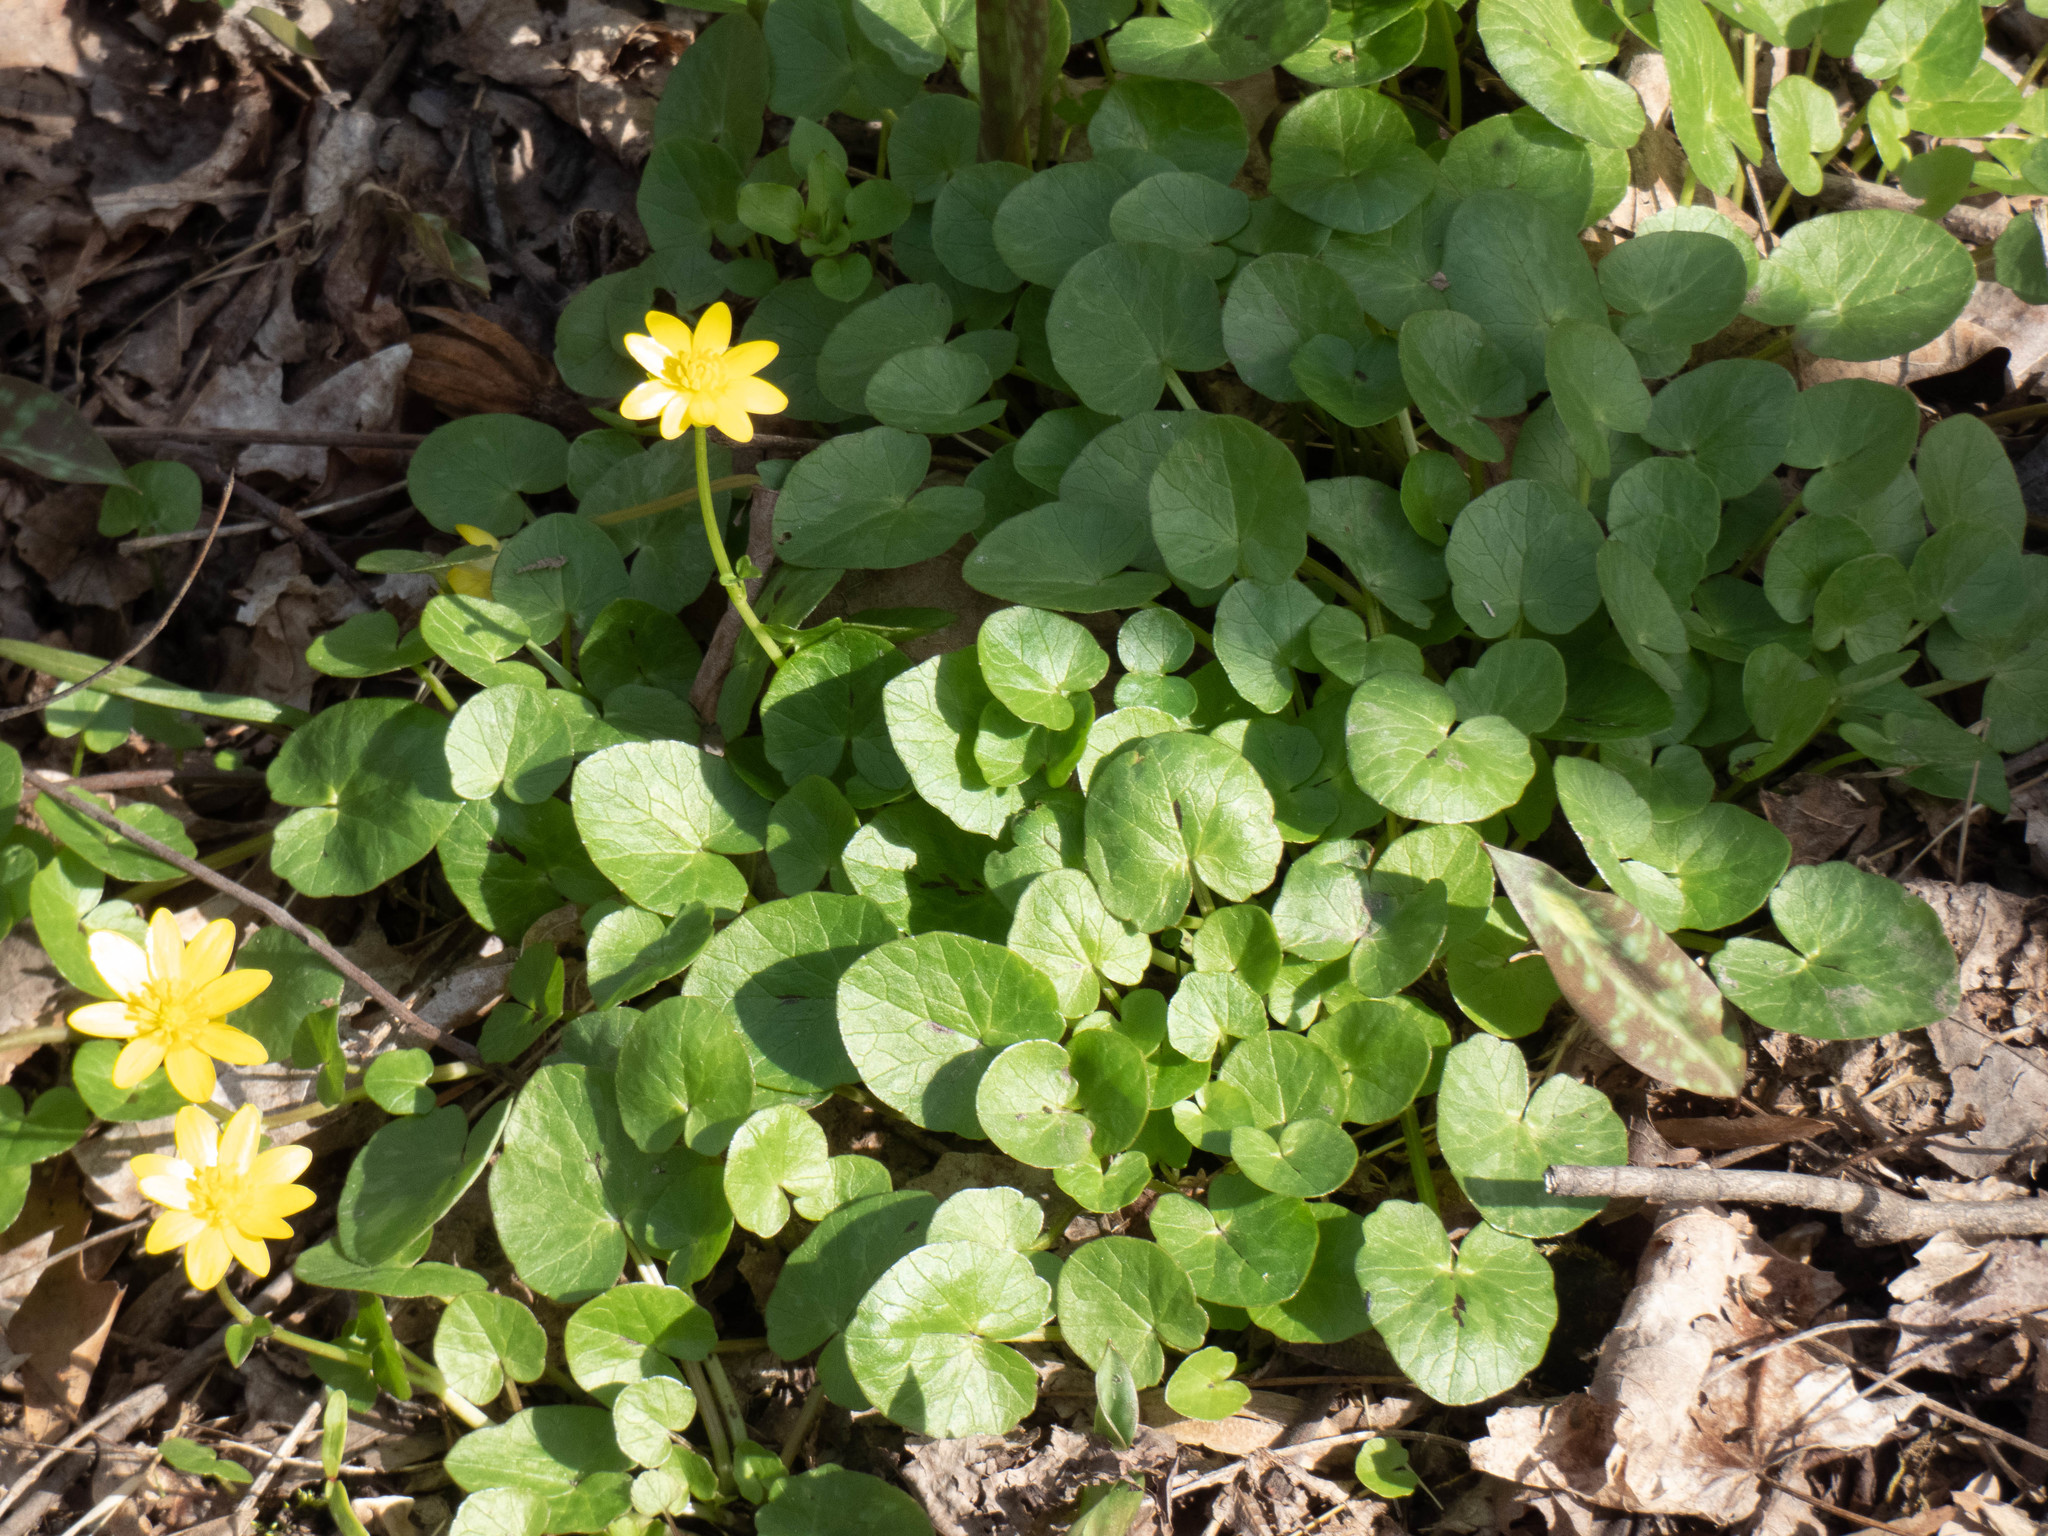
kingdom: Plantae
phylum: Tracheophyta
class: Magnoliopsida
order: Ranunculales
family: Ranunculaceae
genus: Ficaria
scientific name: Ficaria verna
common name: Lesser celandine
